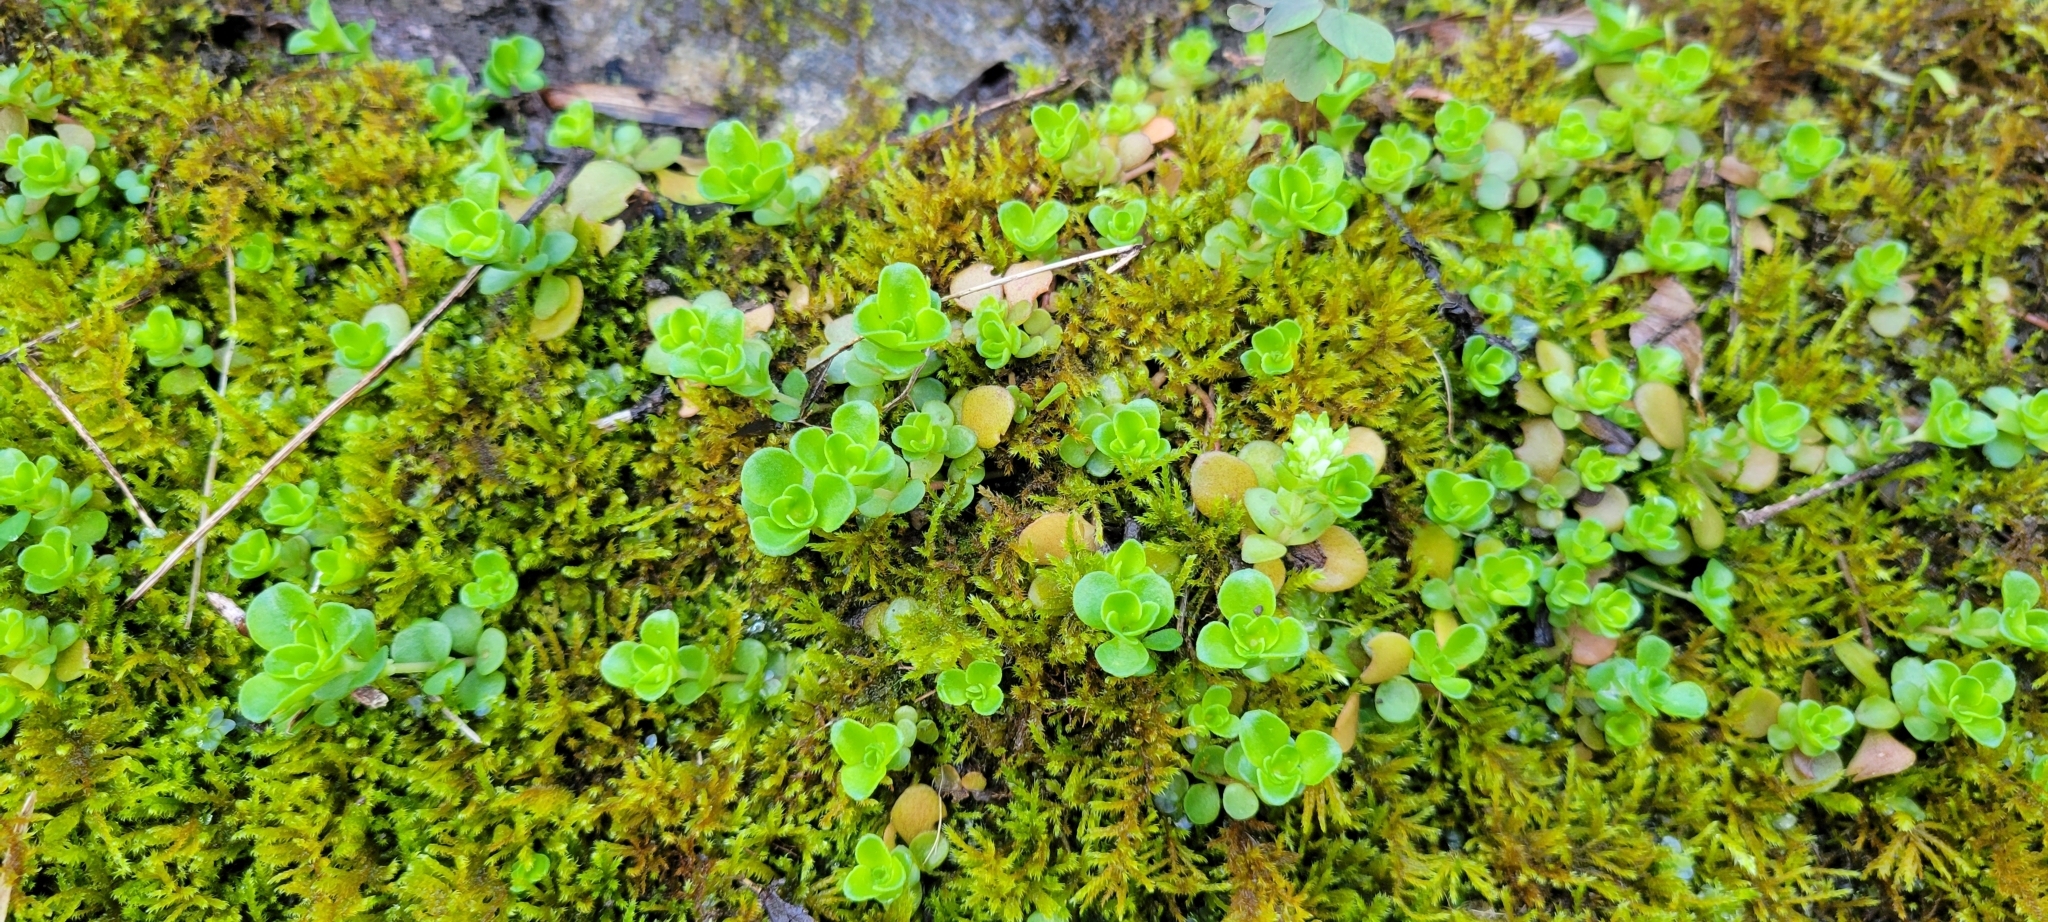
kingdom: Plantae
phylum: Tracheophyta
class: Magnoliopsida
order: Saxifragales
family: Crassulaceae
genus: Sedum
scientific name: Sedum ternatum
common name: Wild stonecrop
